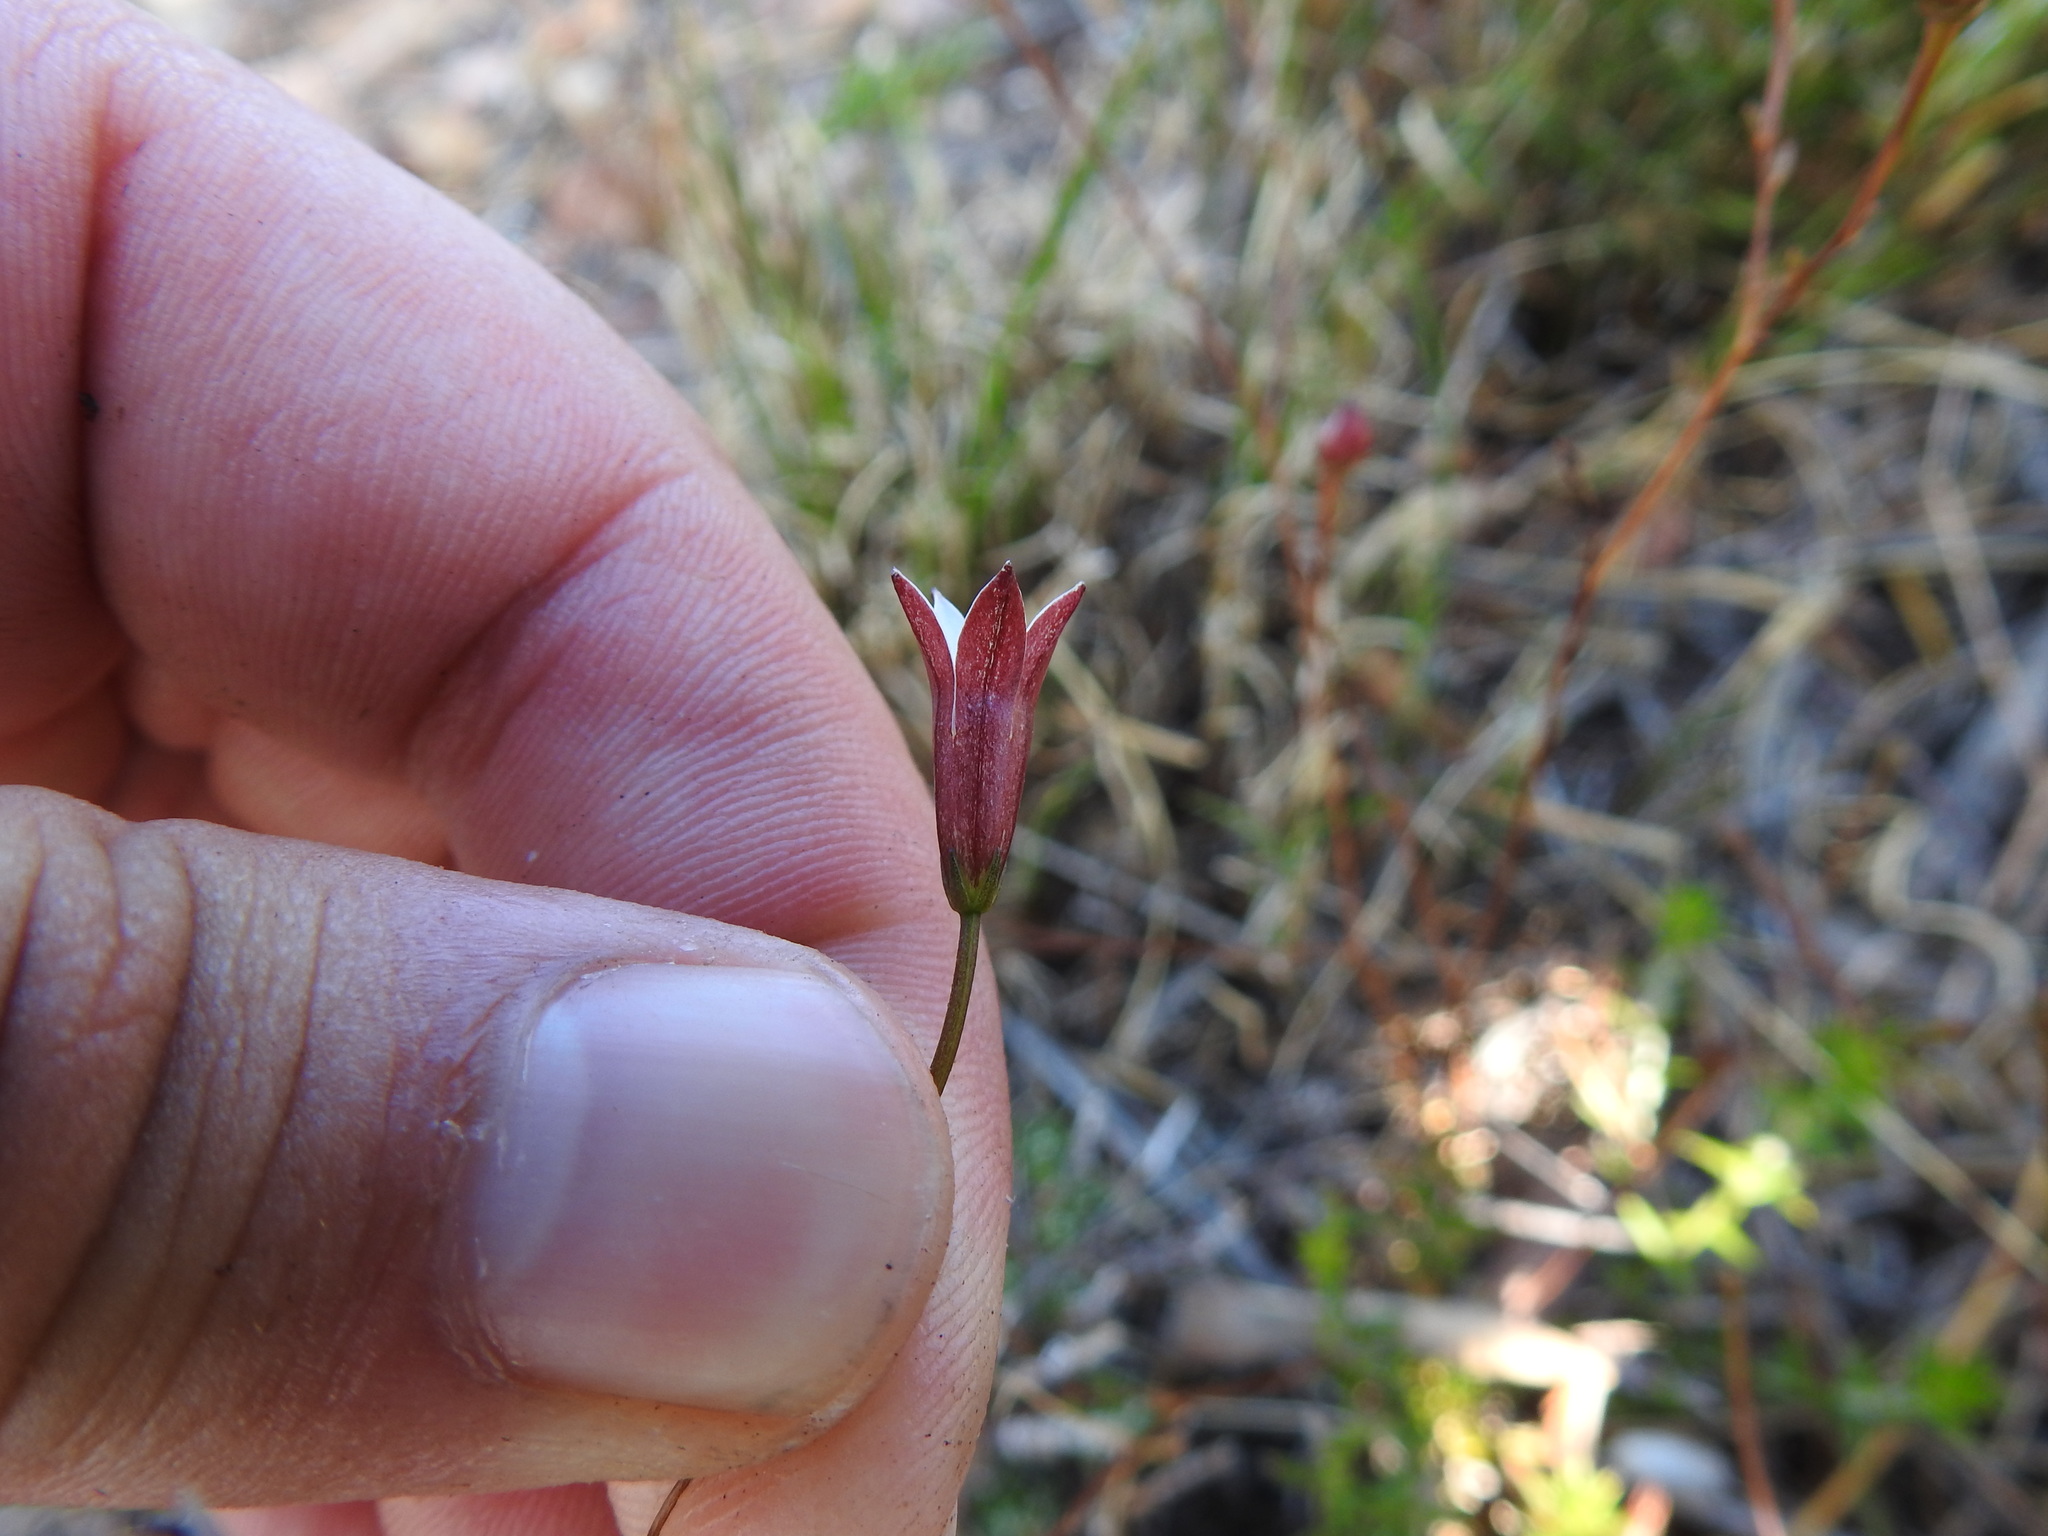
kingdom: Plantae
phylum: Tracheophyta
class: Magnoliopsida
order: Asterales
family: Campanulaceae
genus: Prismatocarpus
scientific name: Prismatocarpus fruticosus
